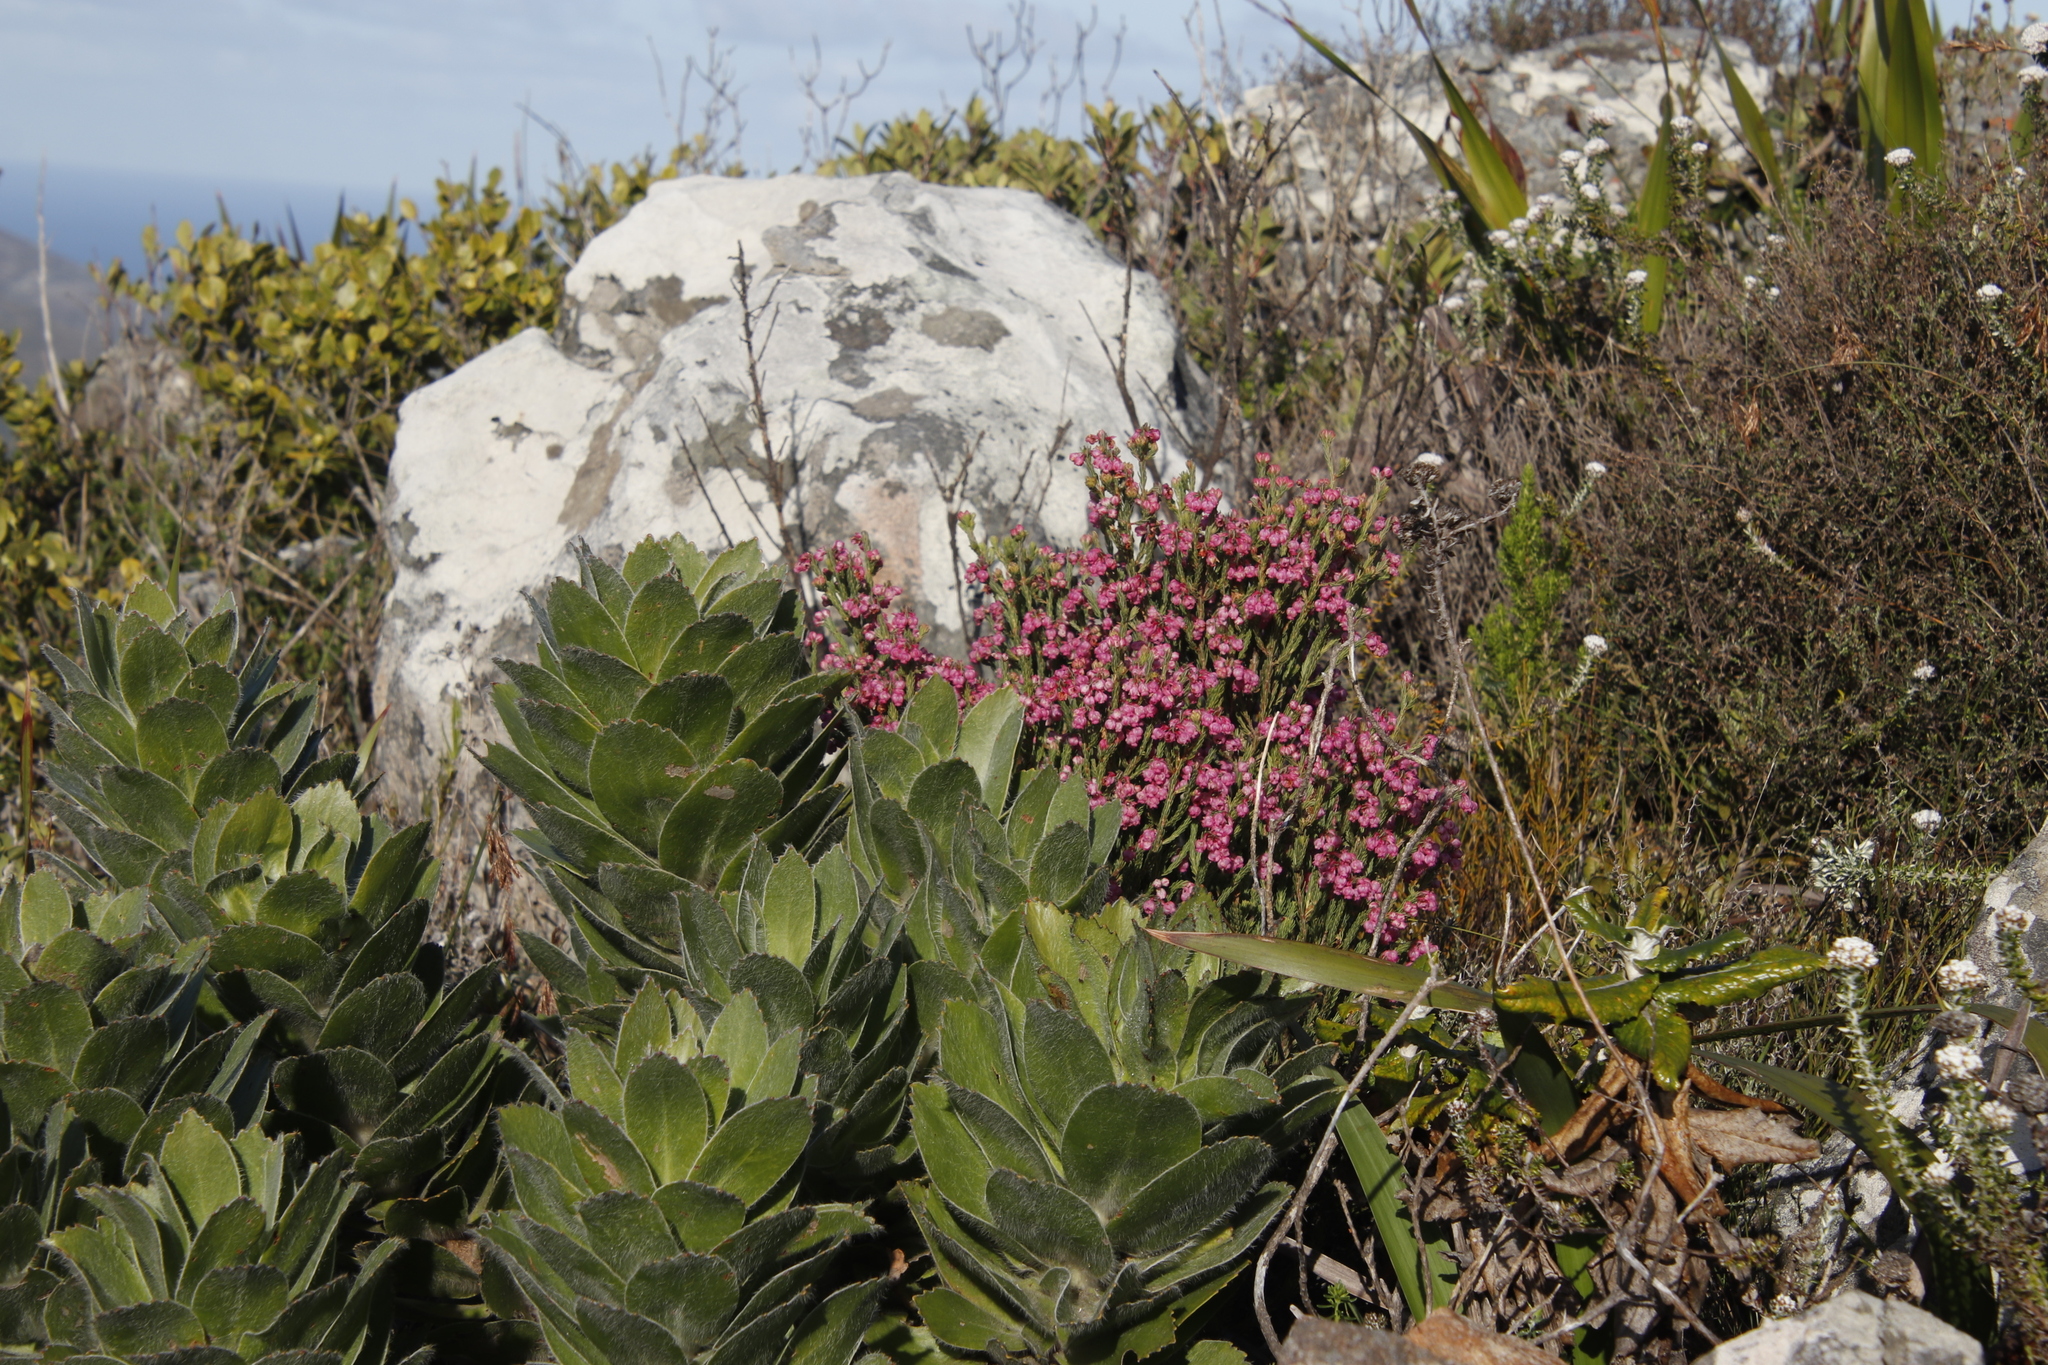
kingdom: Plantae
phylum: Tracheophyta
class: Magnoliopsida
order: Ericales
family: Ericaceae
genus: Erica
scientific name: Erica baccans
